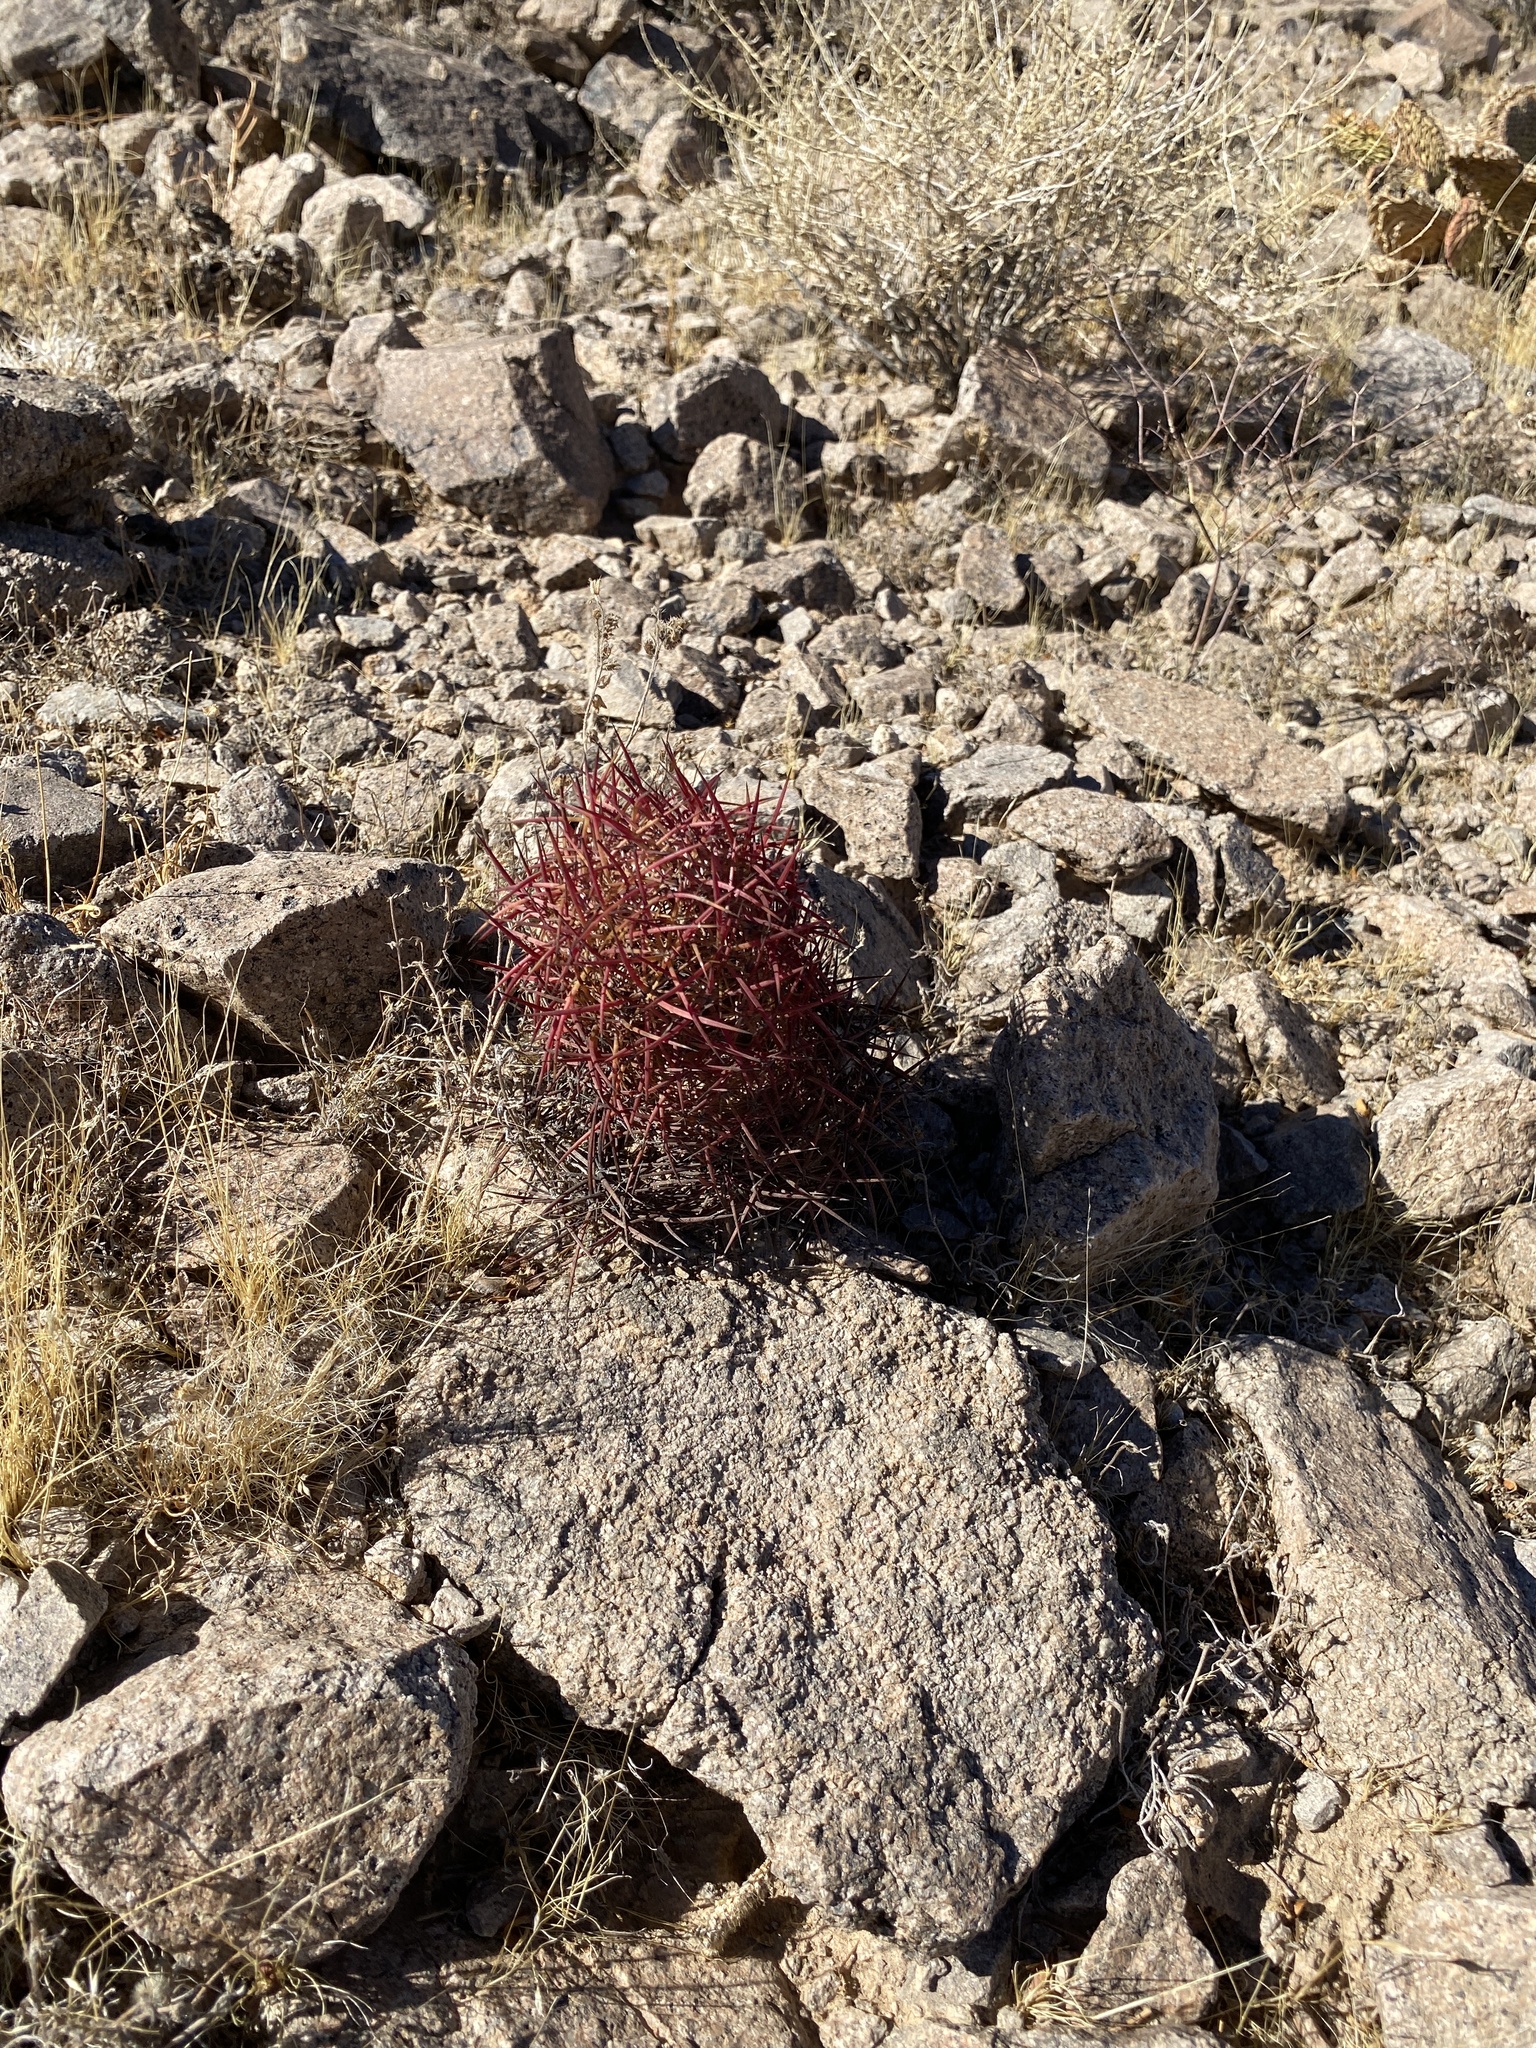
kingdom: Plantae
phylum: Tracheophyta
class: Magnoliopsida
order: Caryophyllales
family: Cactaceae
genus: Sclerocactus
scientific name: Sclerocactus johnsonii
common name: Eight-spine fishhook cactus
